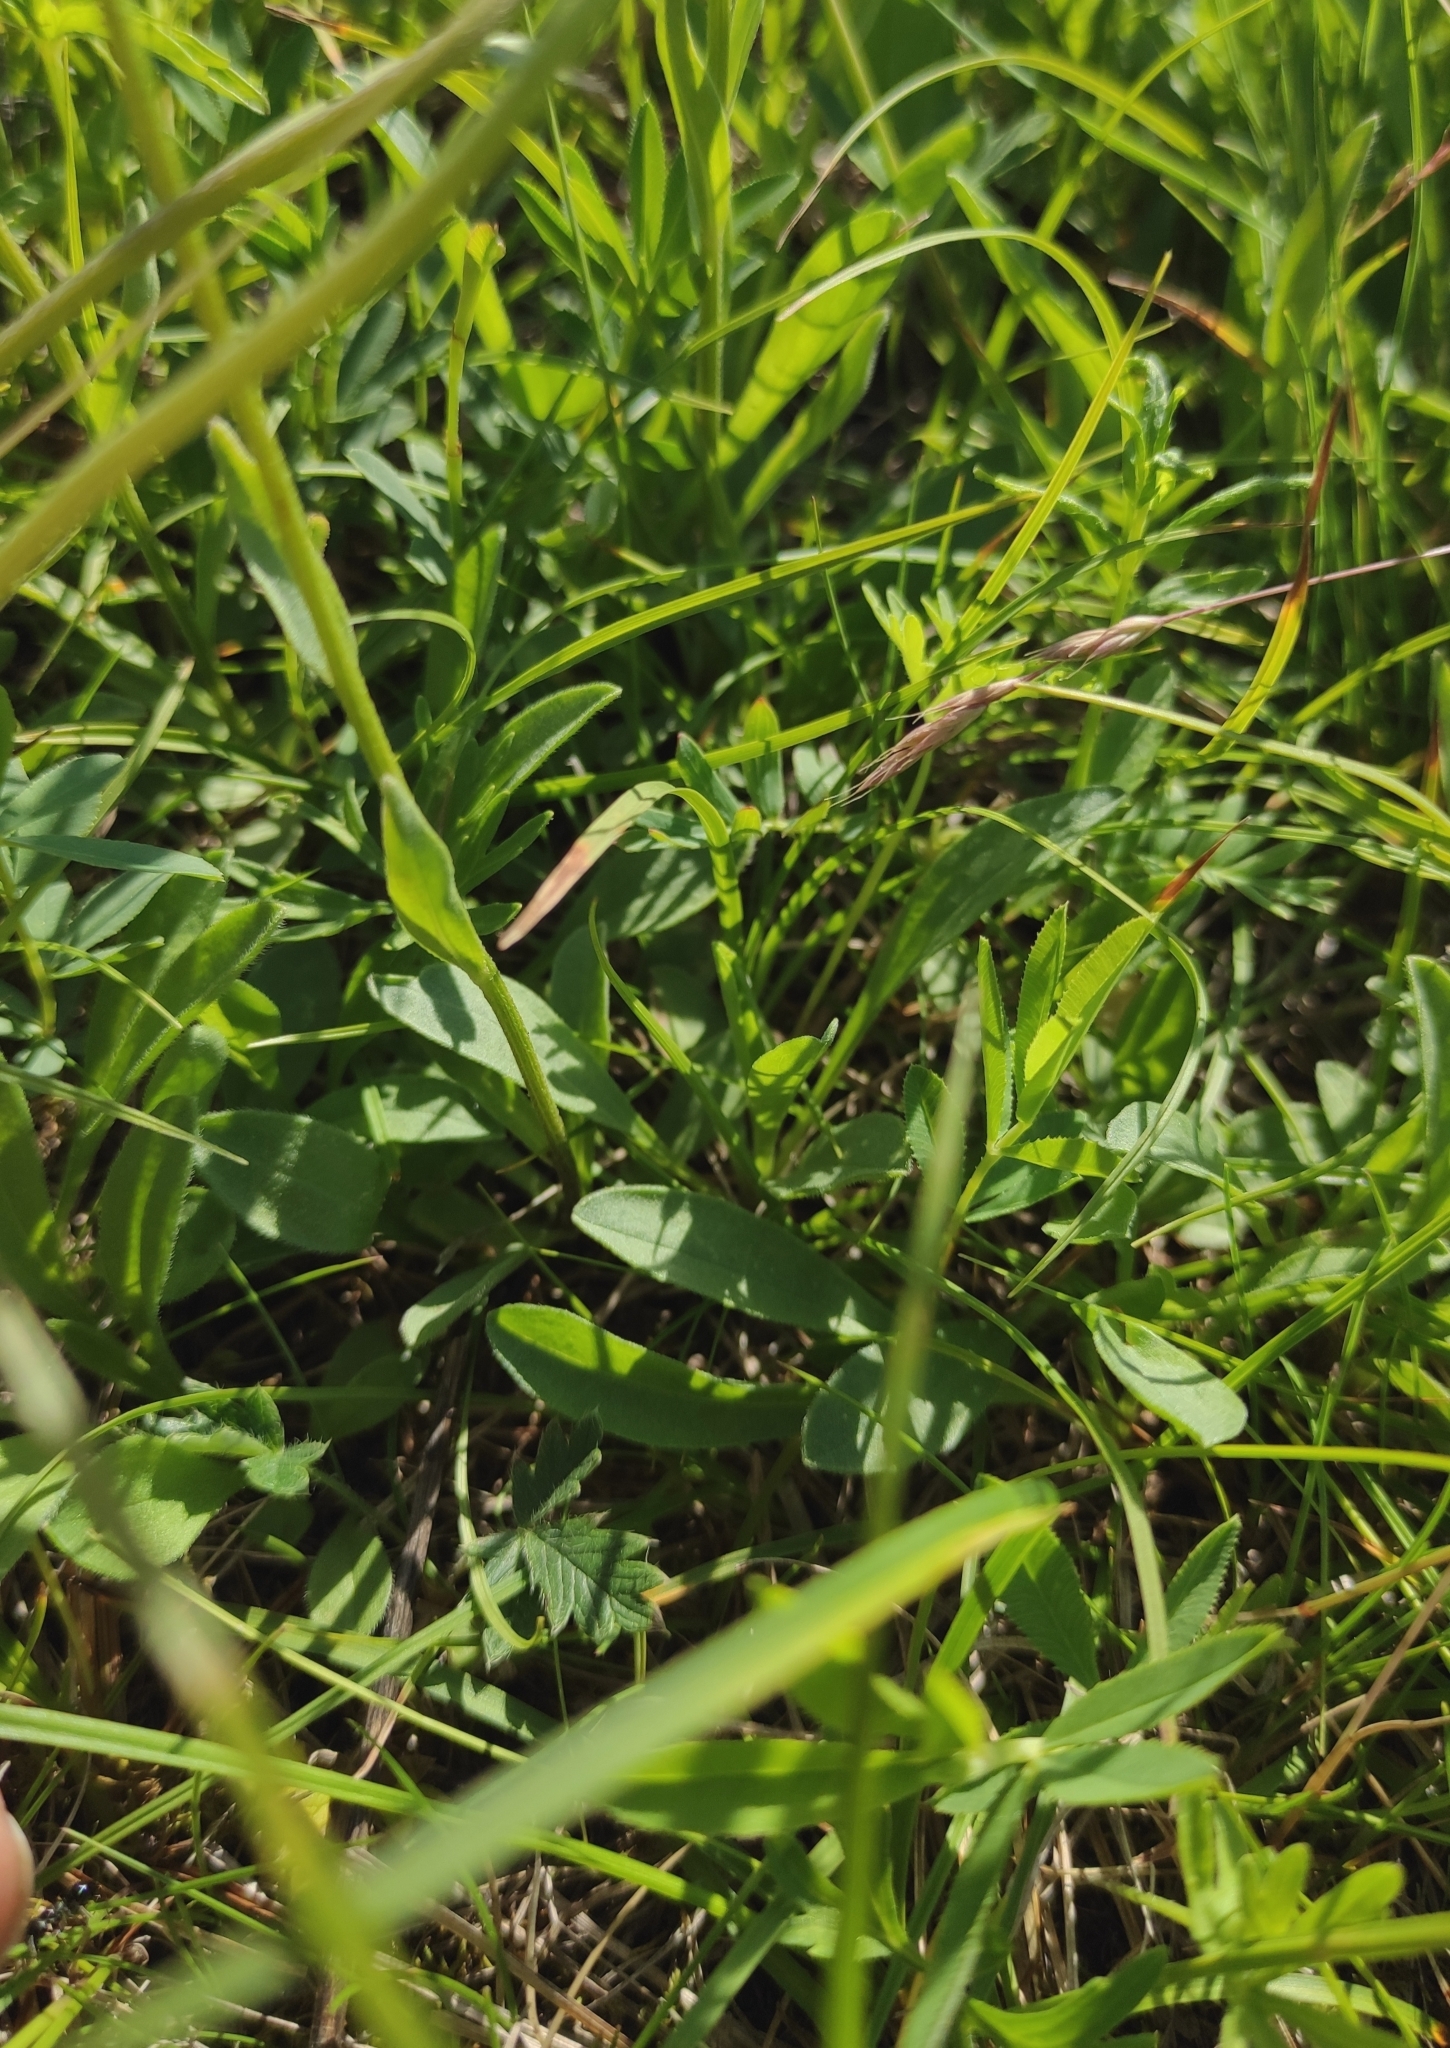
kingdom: Plantae
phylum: Tracheophyta
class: Magnoliopsida
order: Asterales
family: Asteraceae
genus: Aster
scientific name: Aster alpinus
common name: Alpine aster
